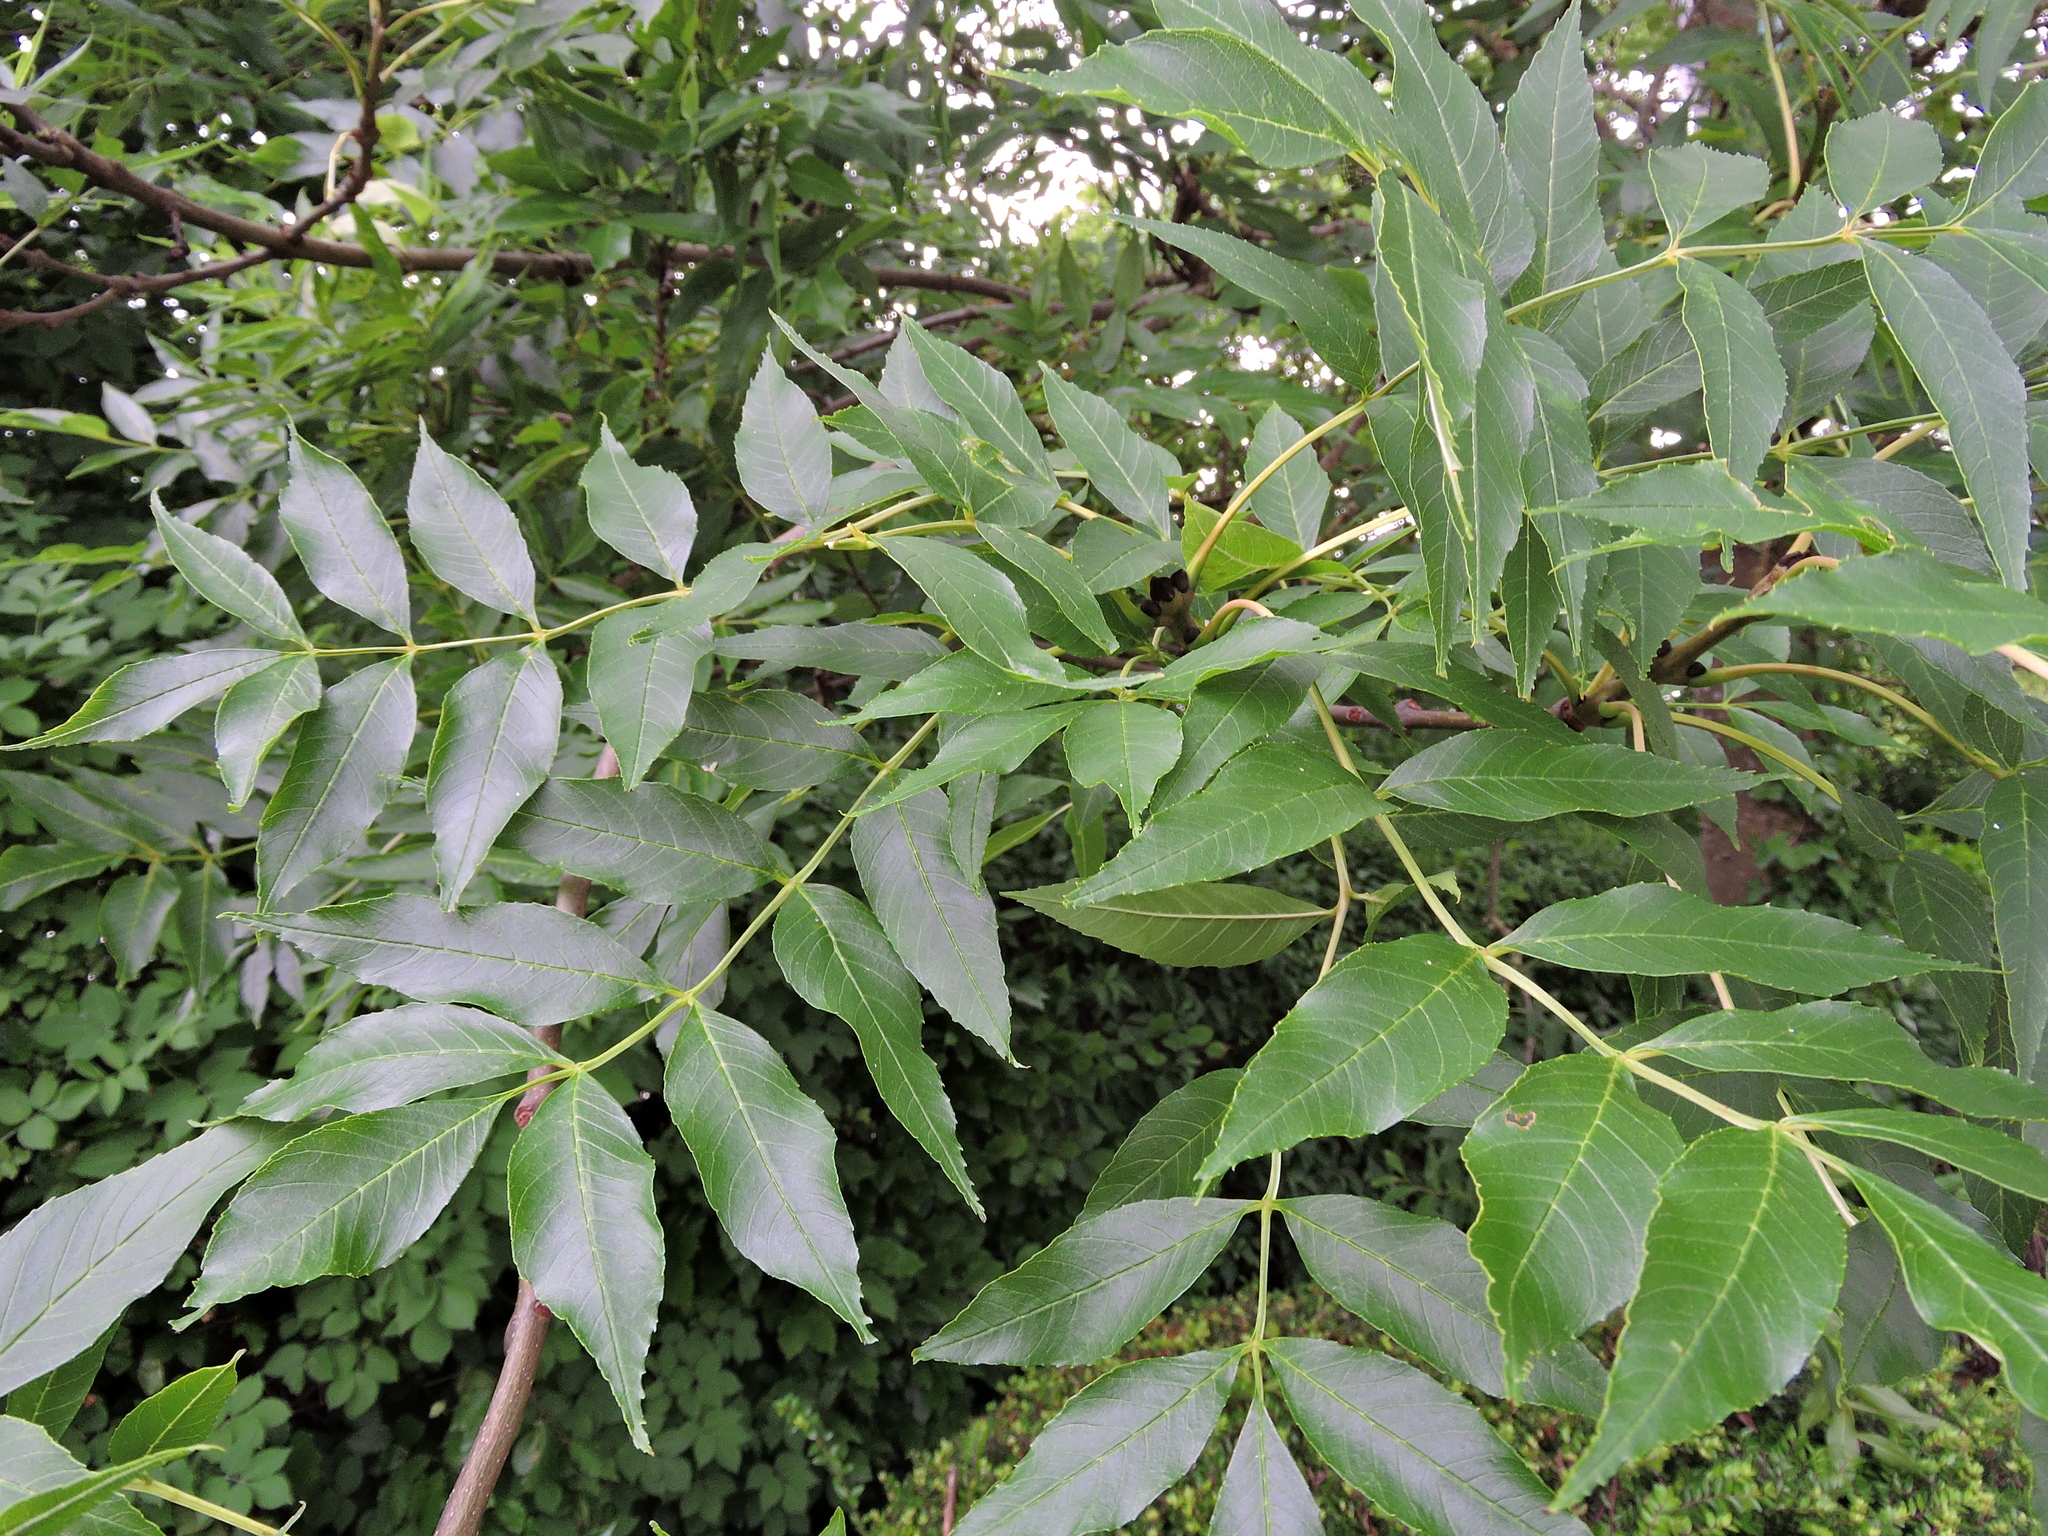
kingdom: Plantae
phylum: Tracheophyta
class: Magnoliopsida
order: Lamiales
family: Oleaceae
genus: Fraxinus
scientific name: Fraxinus excelsior
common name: European ash
